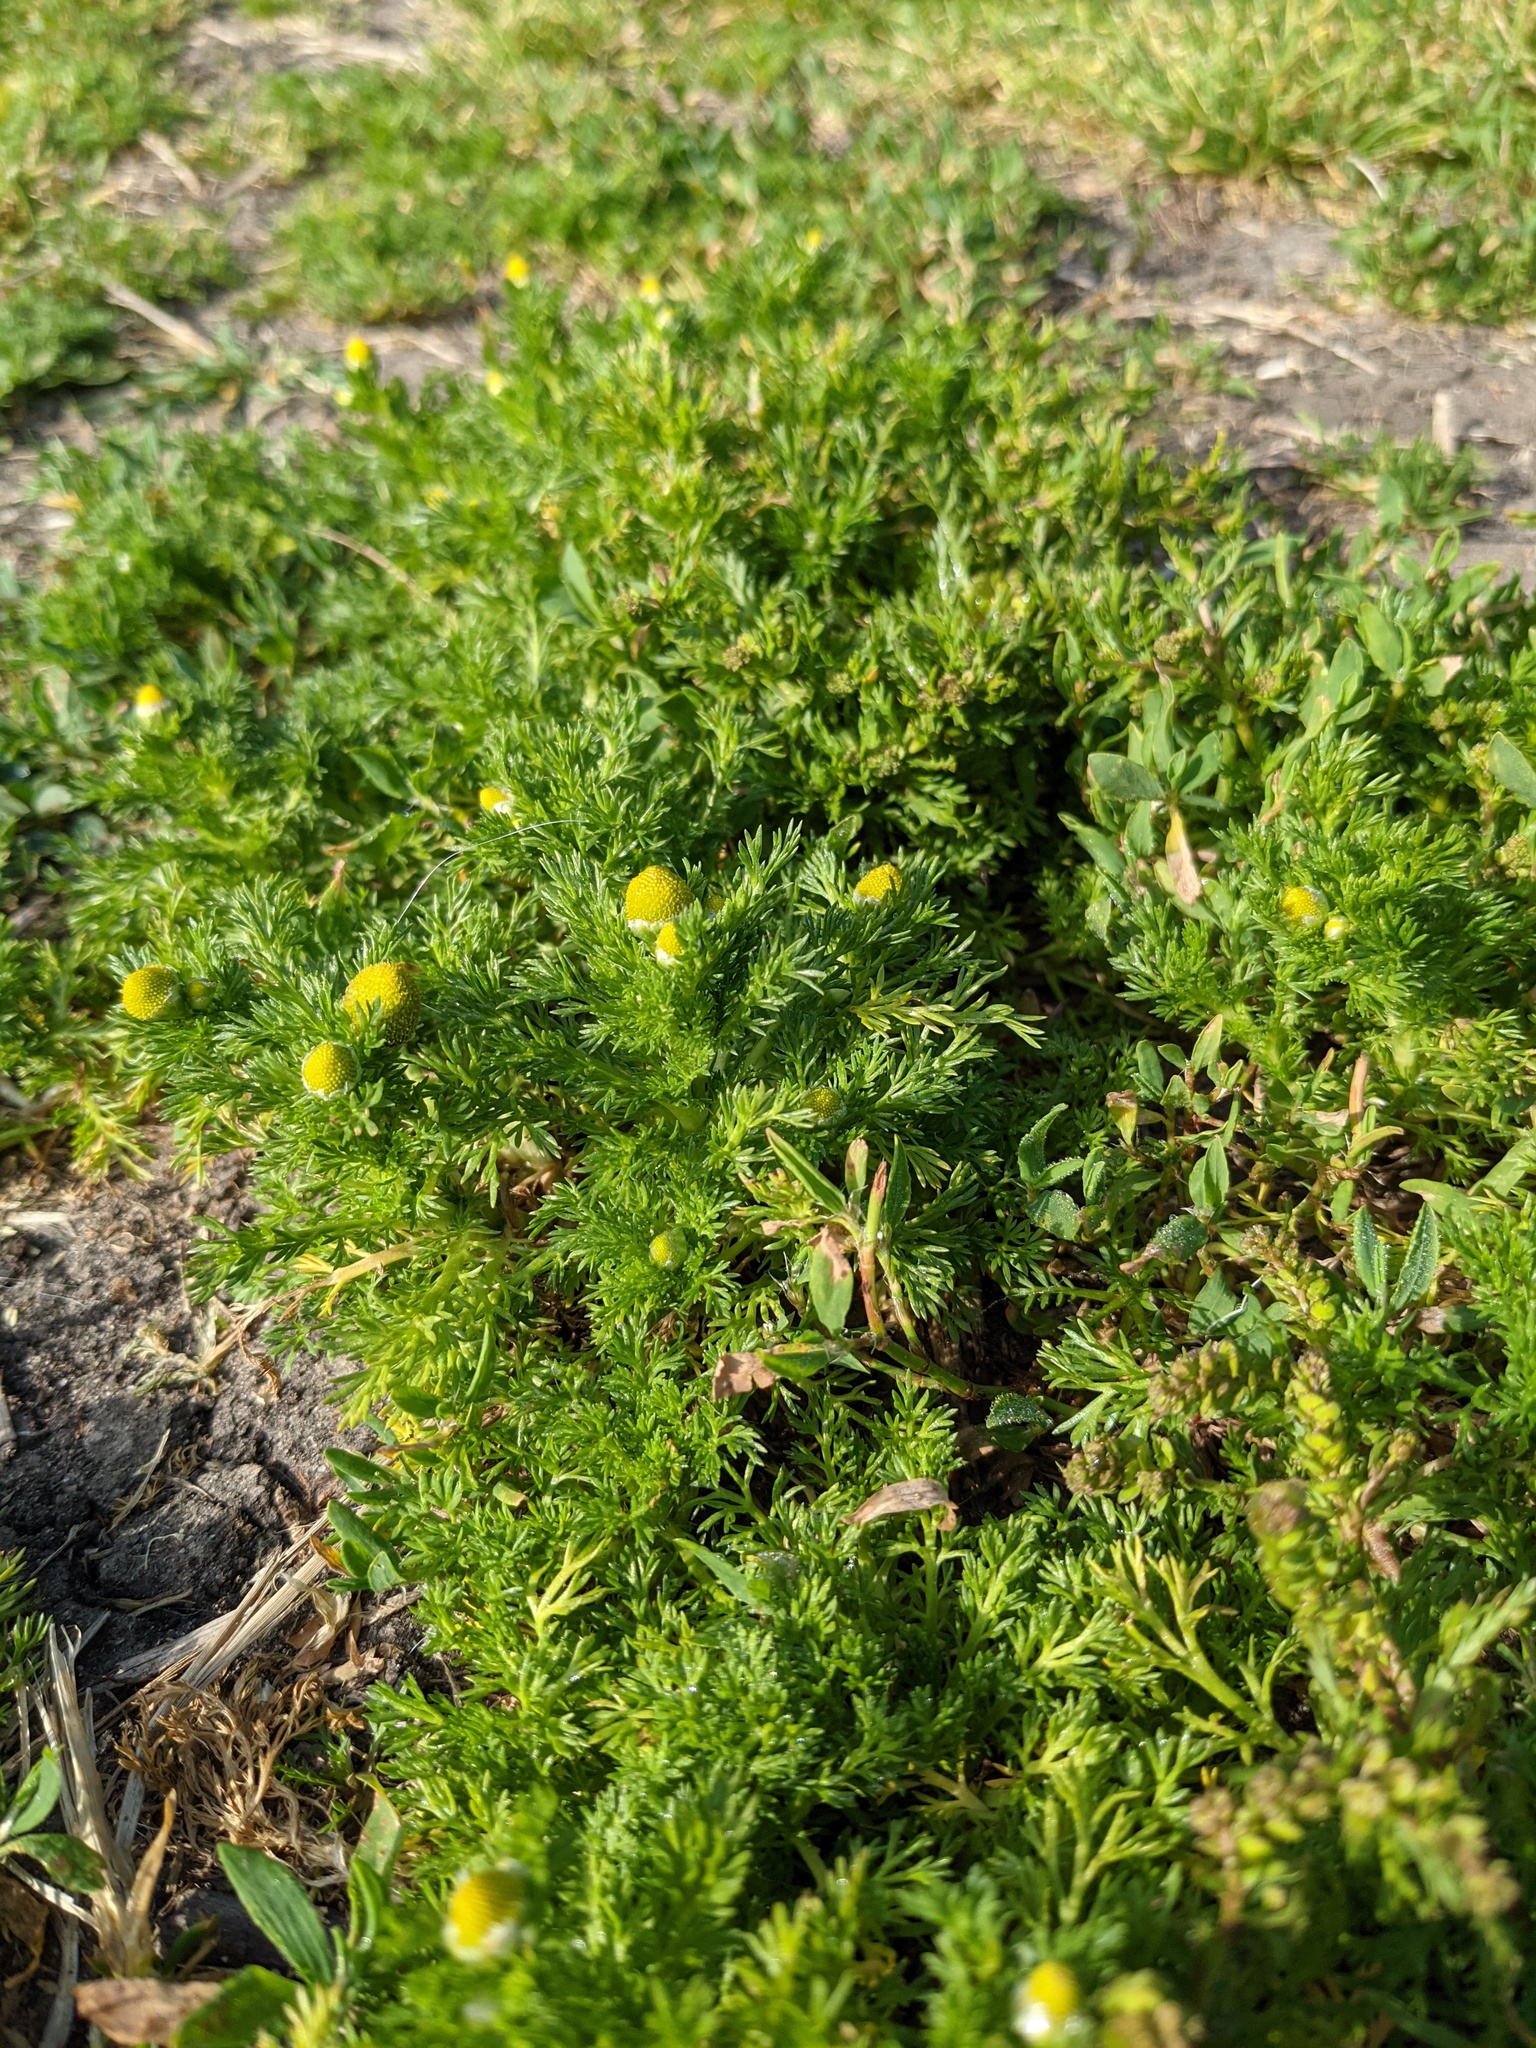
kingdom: Plantae
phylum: Tracheophyta
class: Magnoliopsida
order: Asterales
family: Asteraceae
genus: Matricaria
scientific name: Matricaria discoidea
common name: Disc mayweed
